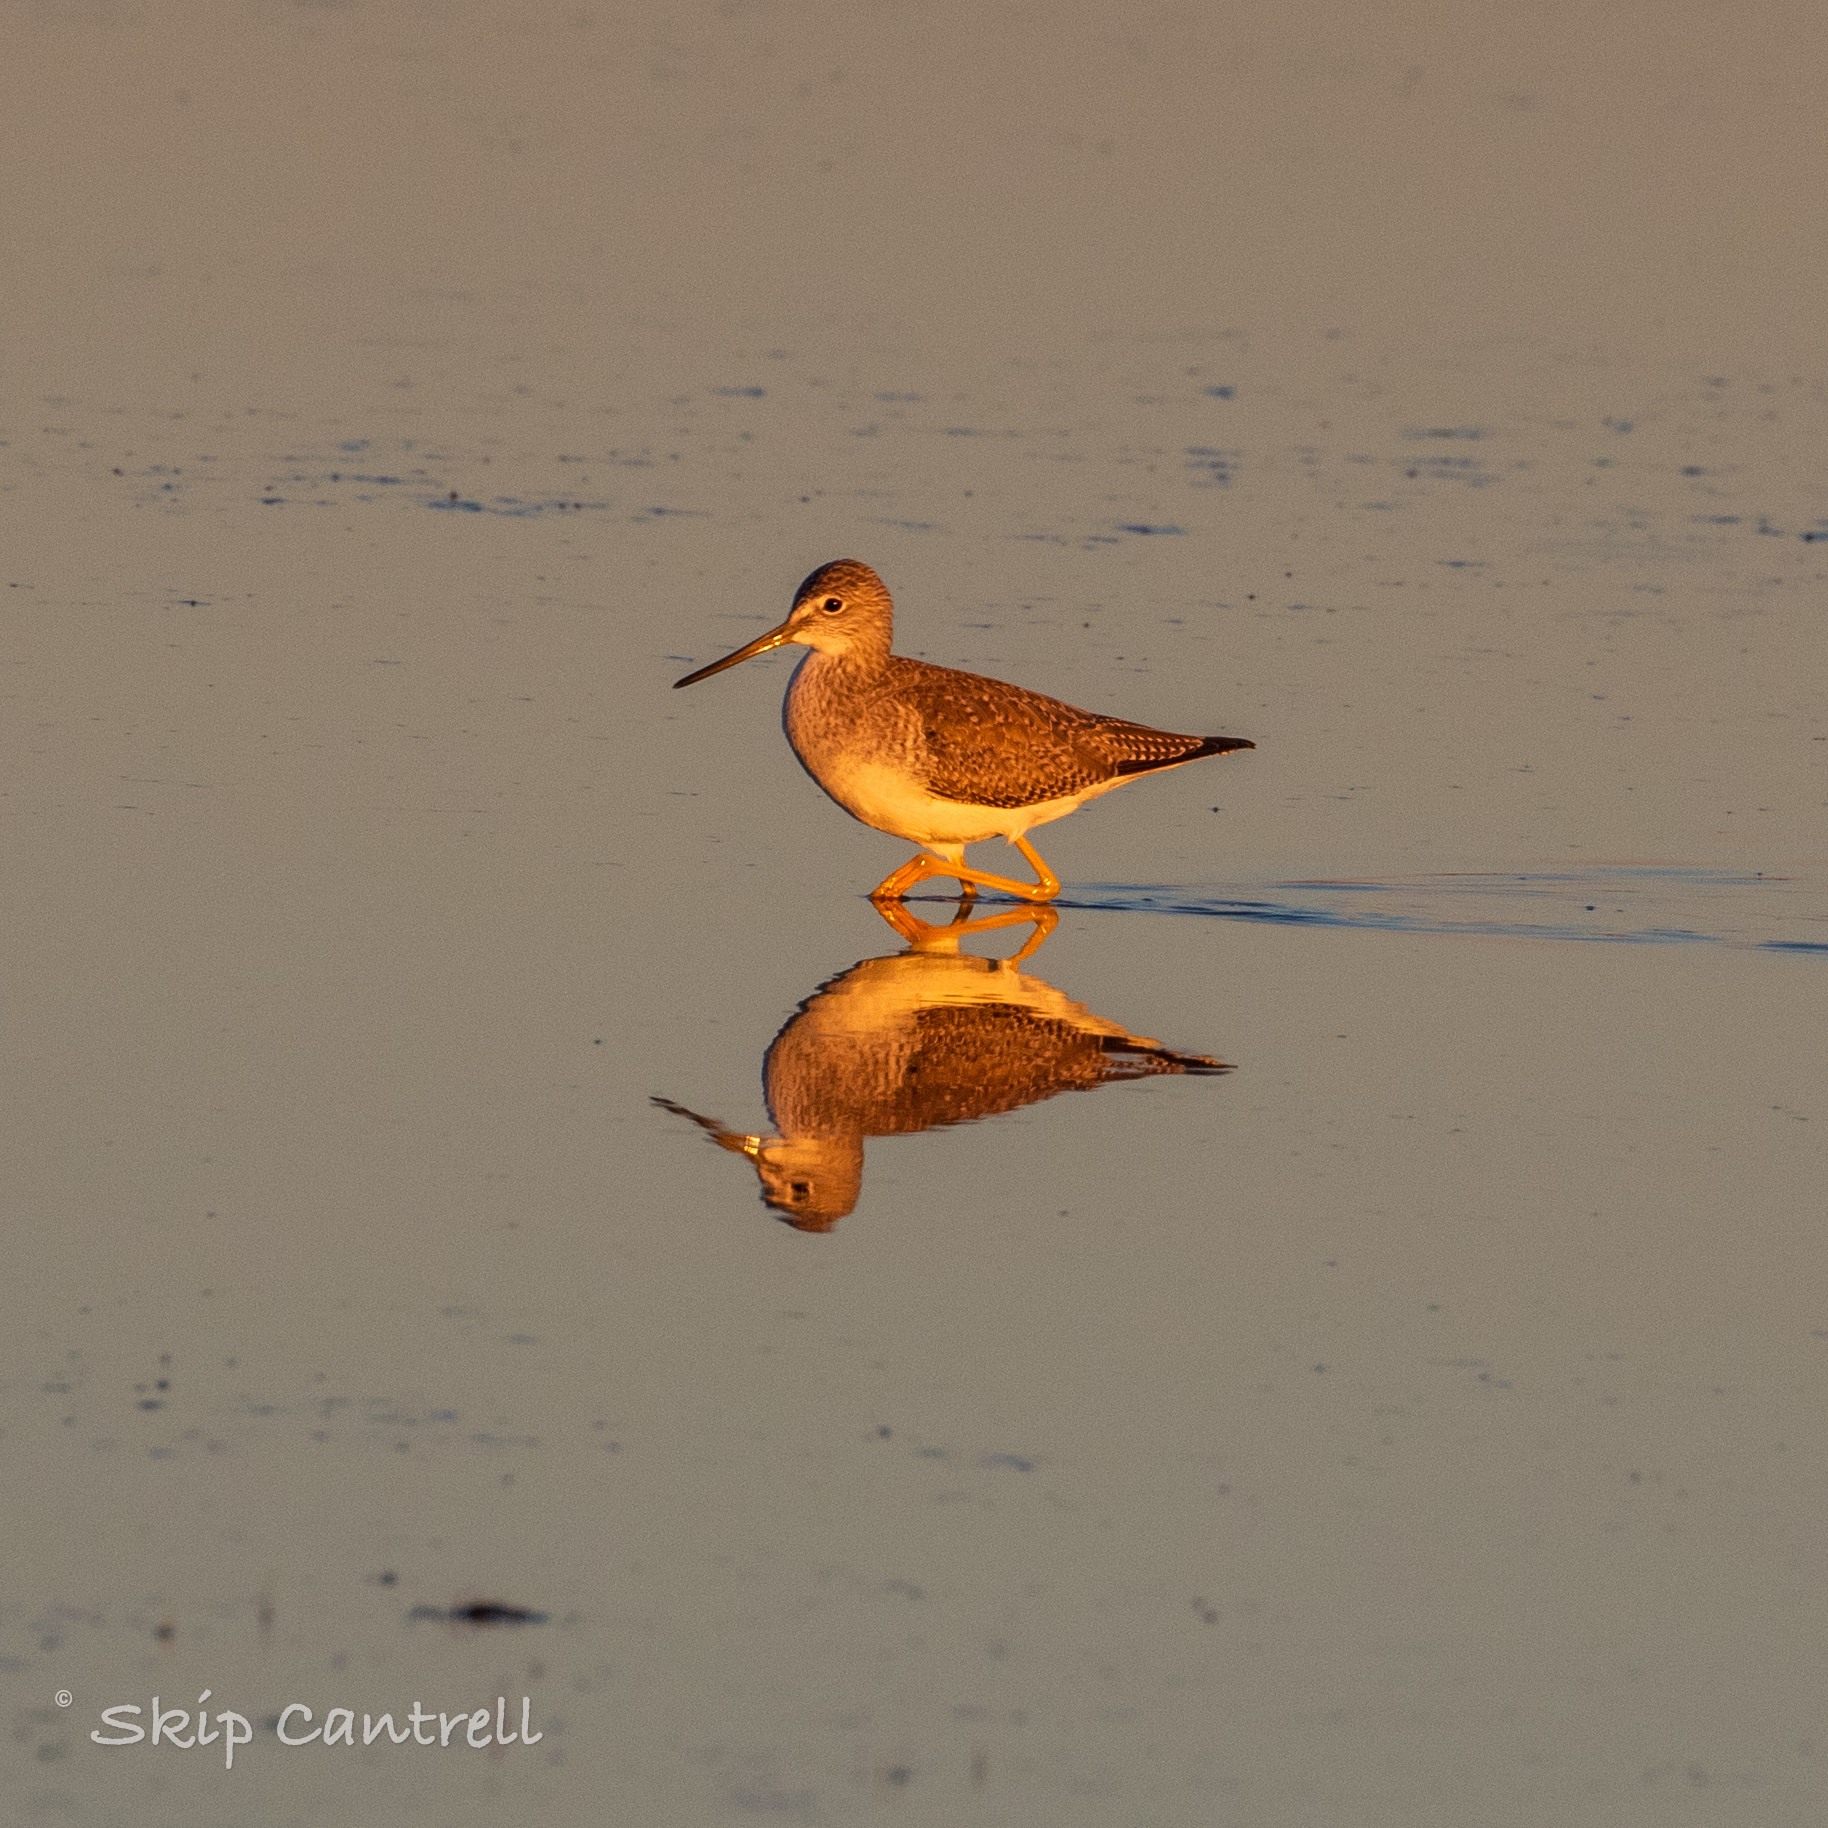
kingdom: Animalia
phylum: Chordata
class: Aves
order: Charadriiformes
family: Scolopacidae
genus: Tringa
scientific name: Tringa melanoleuca
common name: Greater yellowlegs
